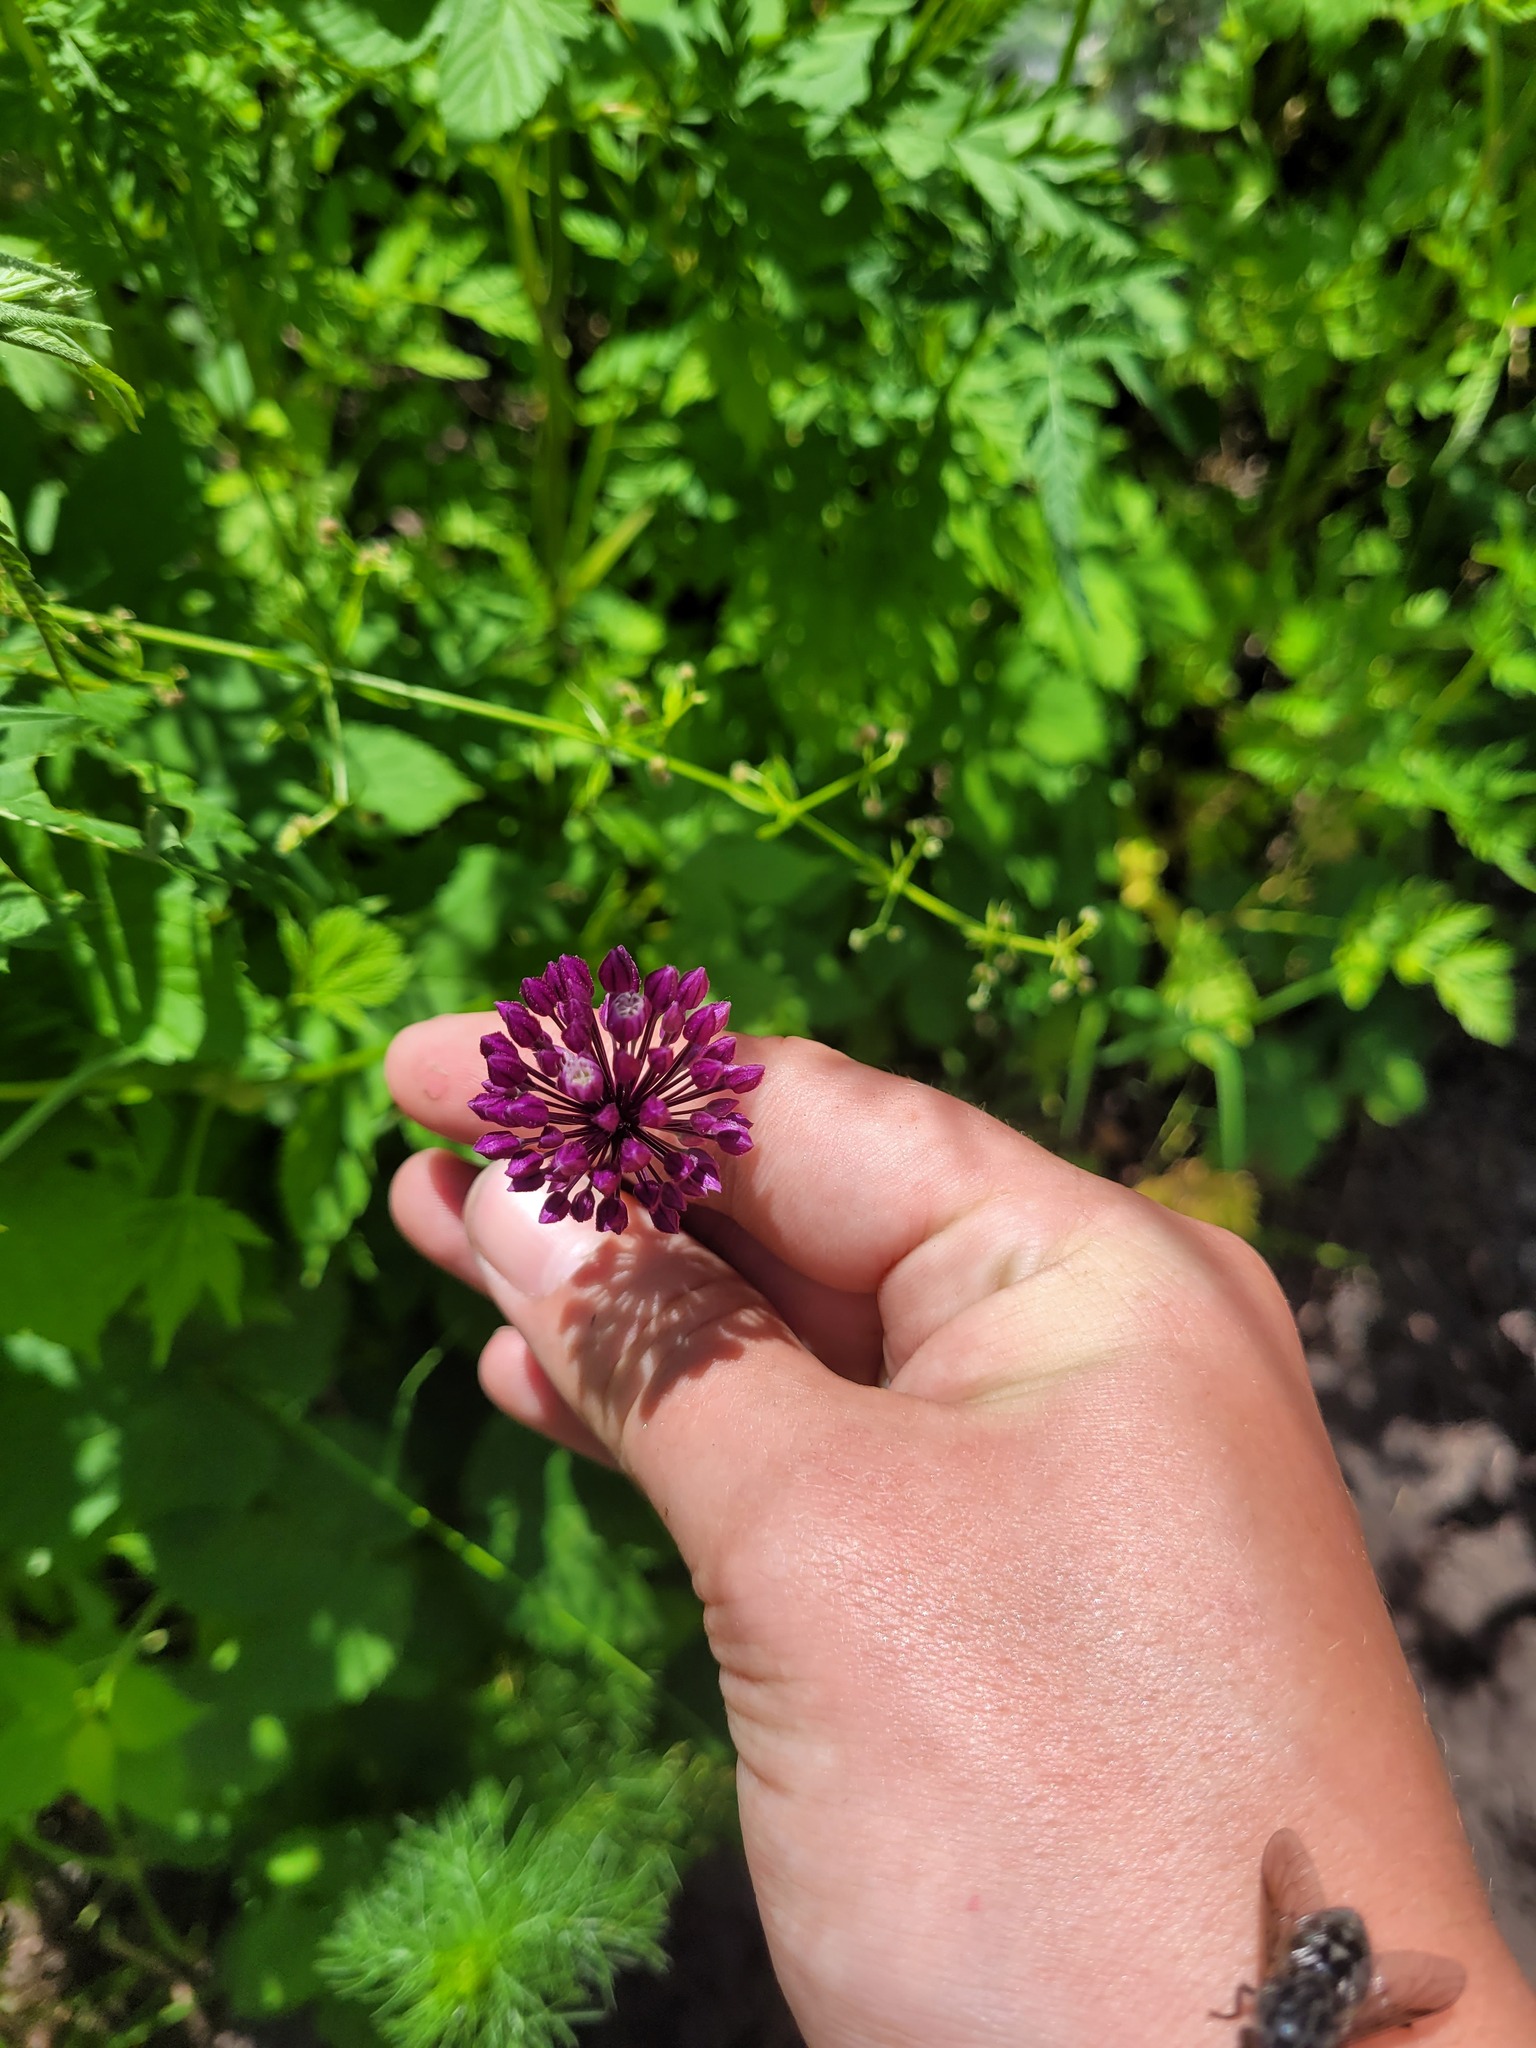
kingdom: Plantae
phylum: Tracheophyta
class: Liliopsida
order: Asparagales
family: Amaryllidaceae
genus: Allium
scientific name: Allium rotundum
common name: Sand leek
